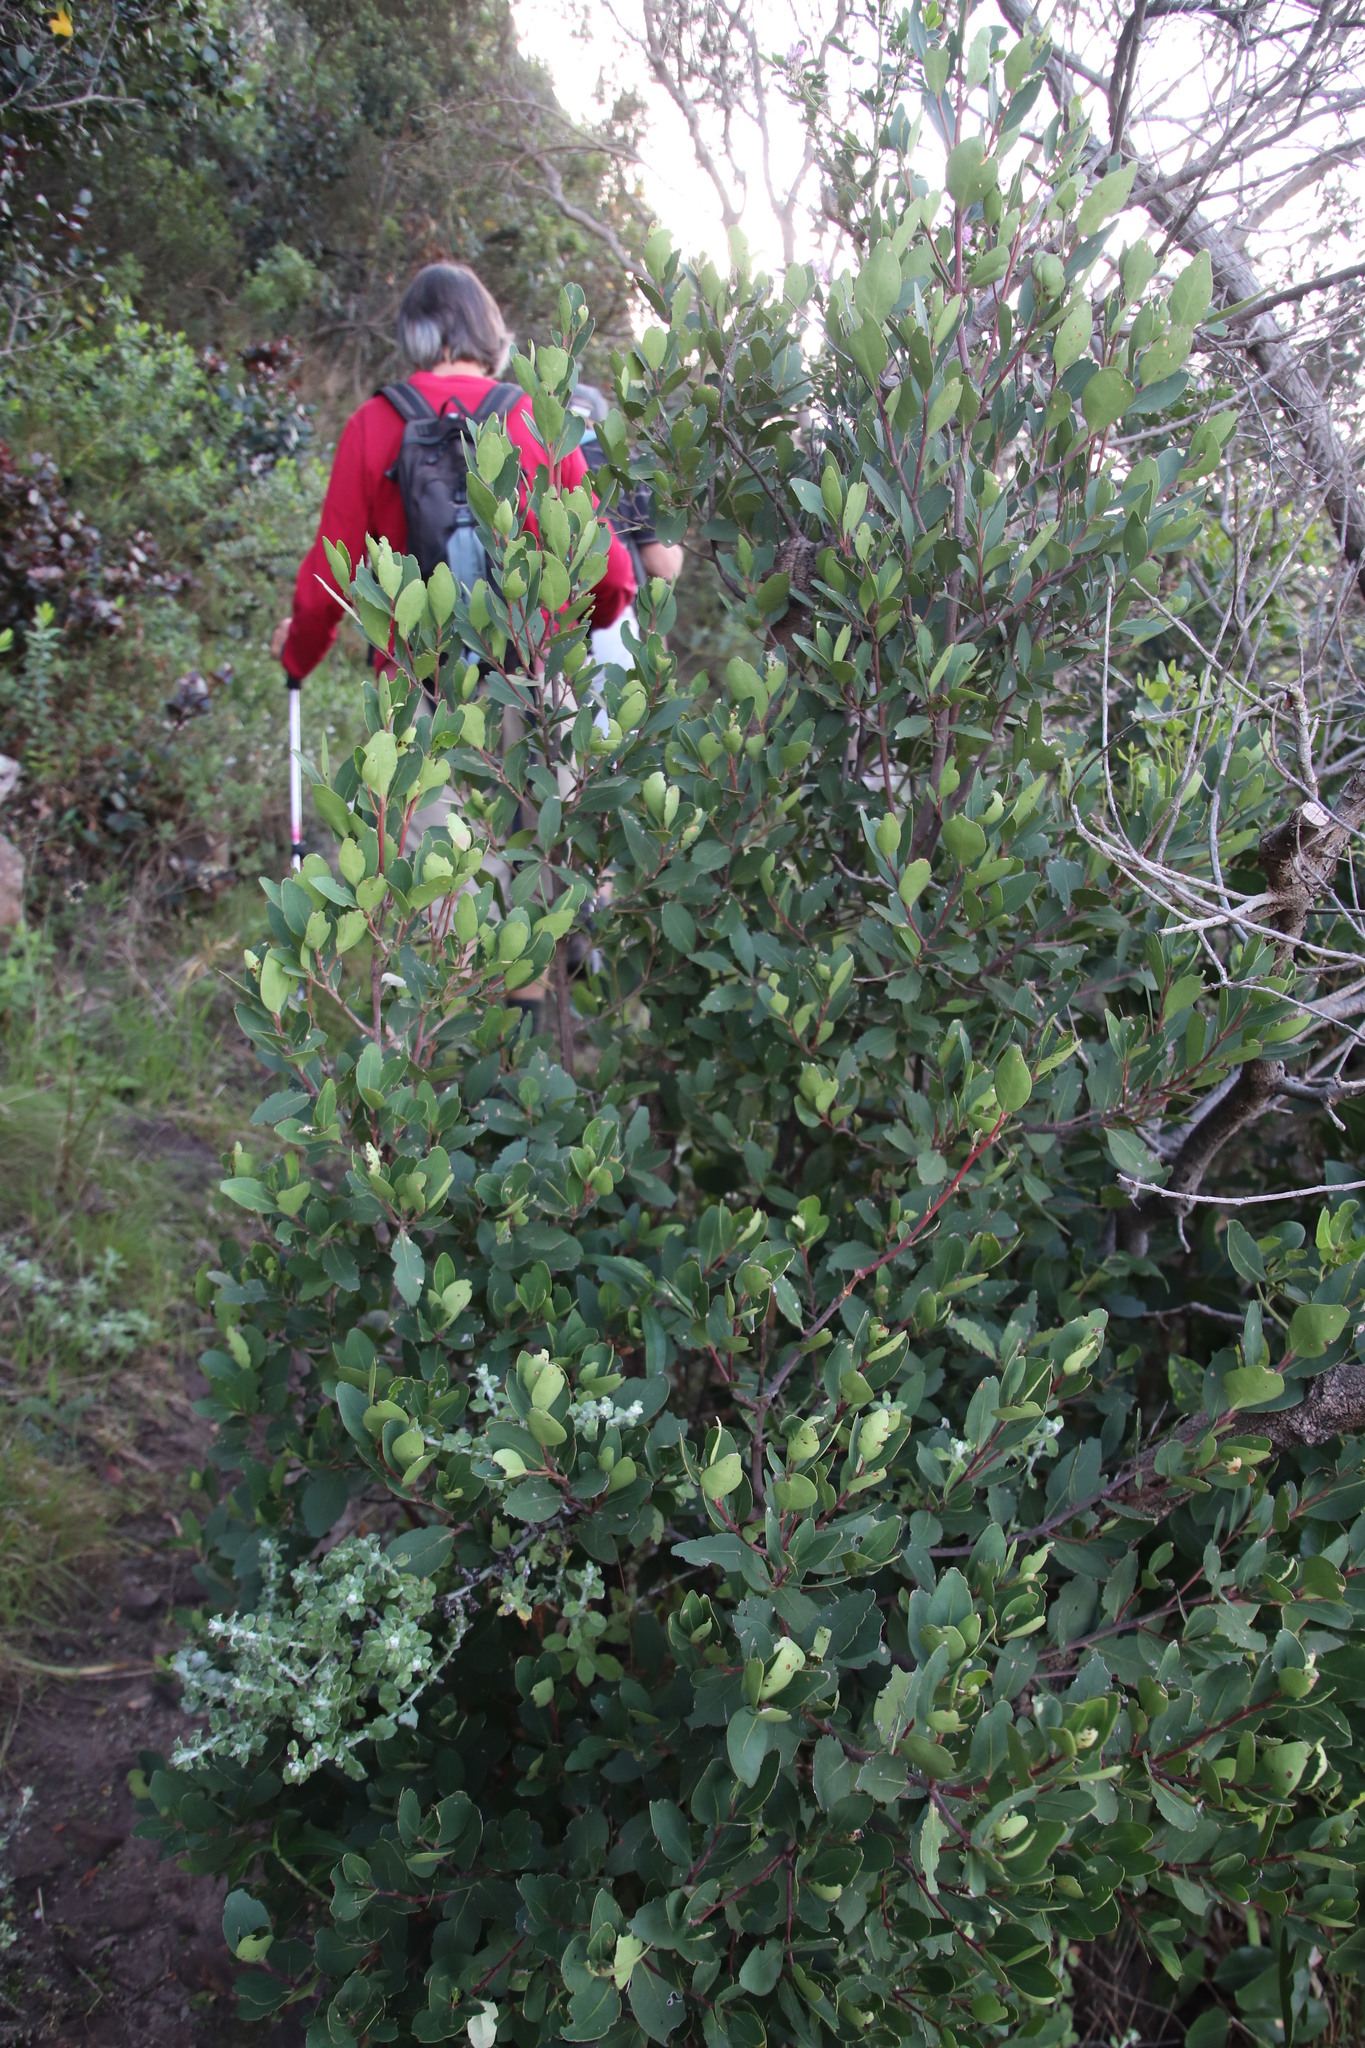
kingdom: Plantae
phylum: Tracheophyta
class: Magnoliopsida
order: Celastrales
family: Celastraceae
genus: Gymnosporia
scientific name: Gymnosporia laurina
